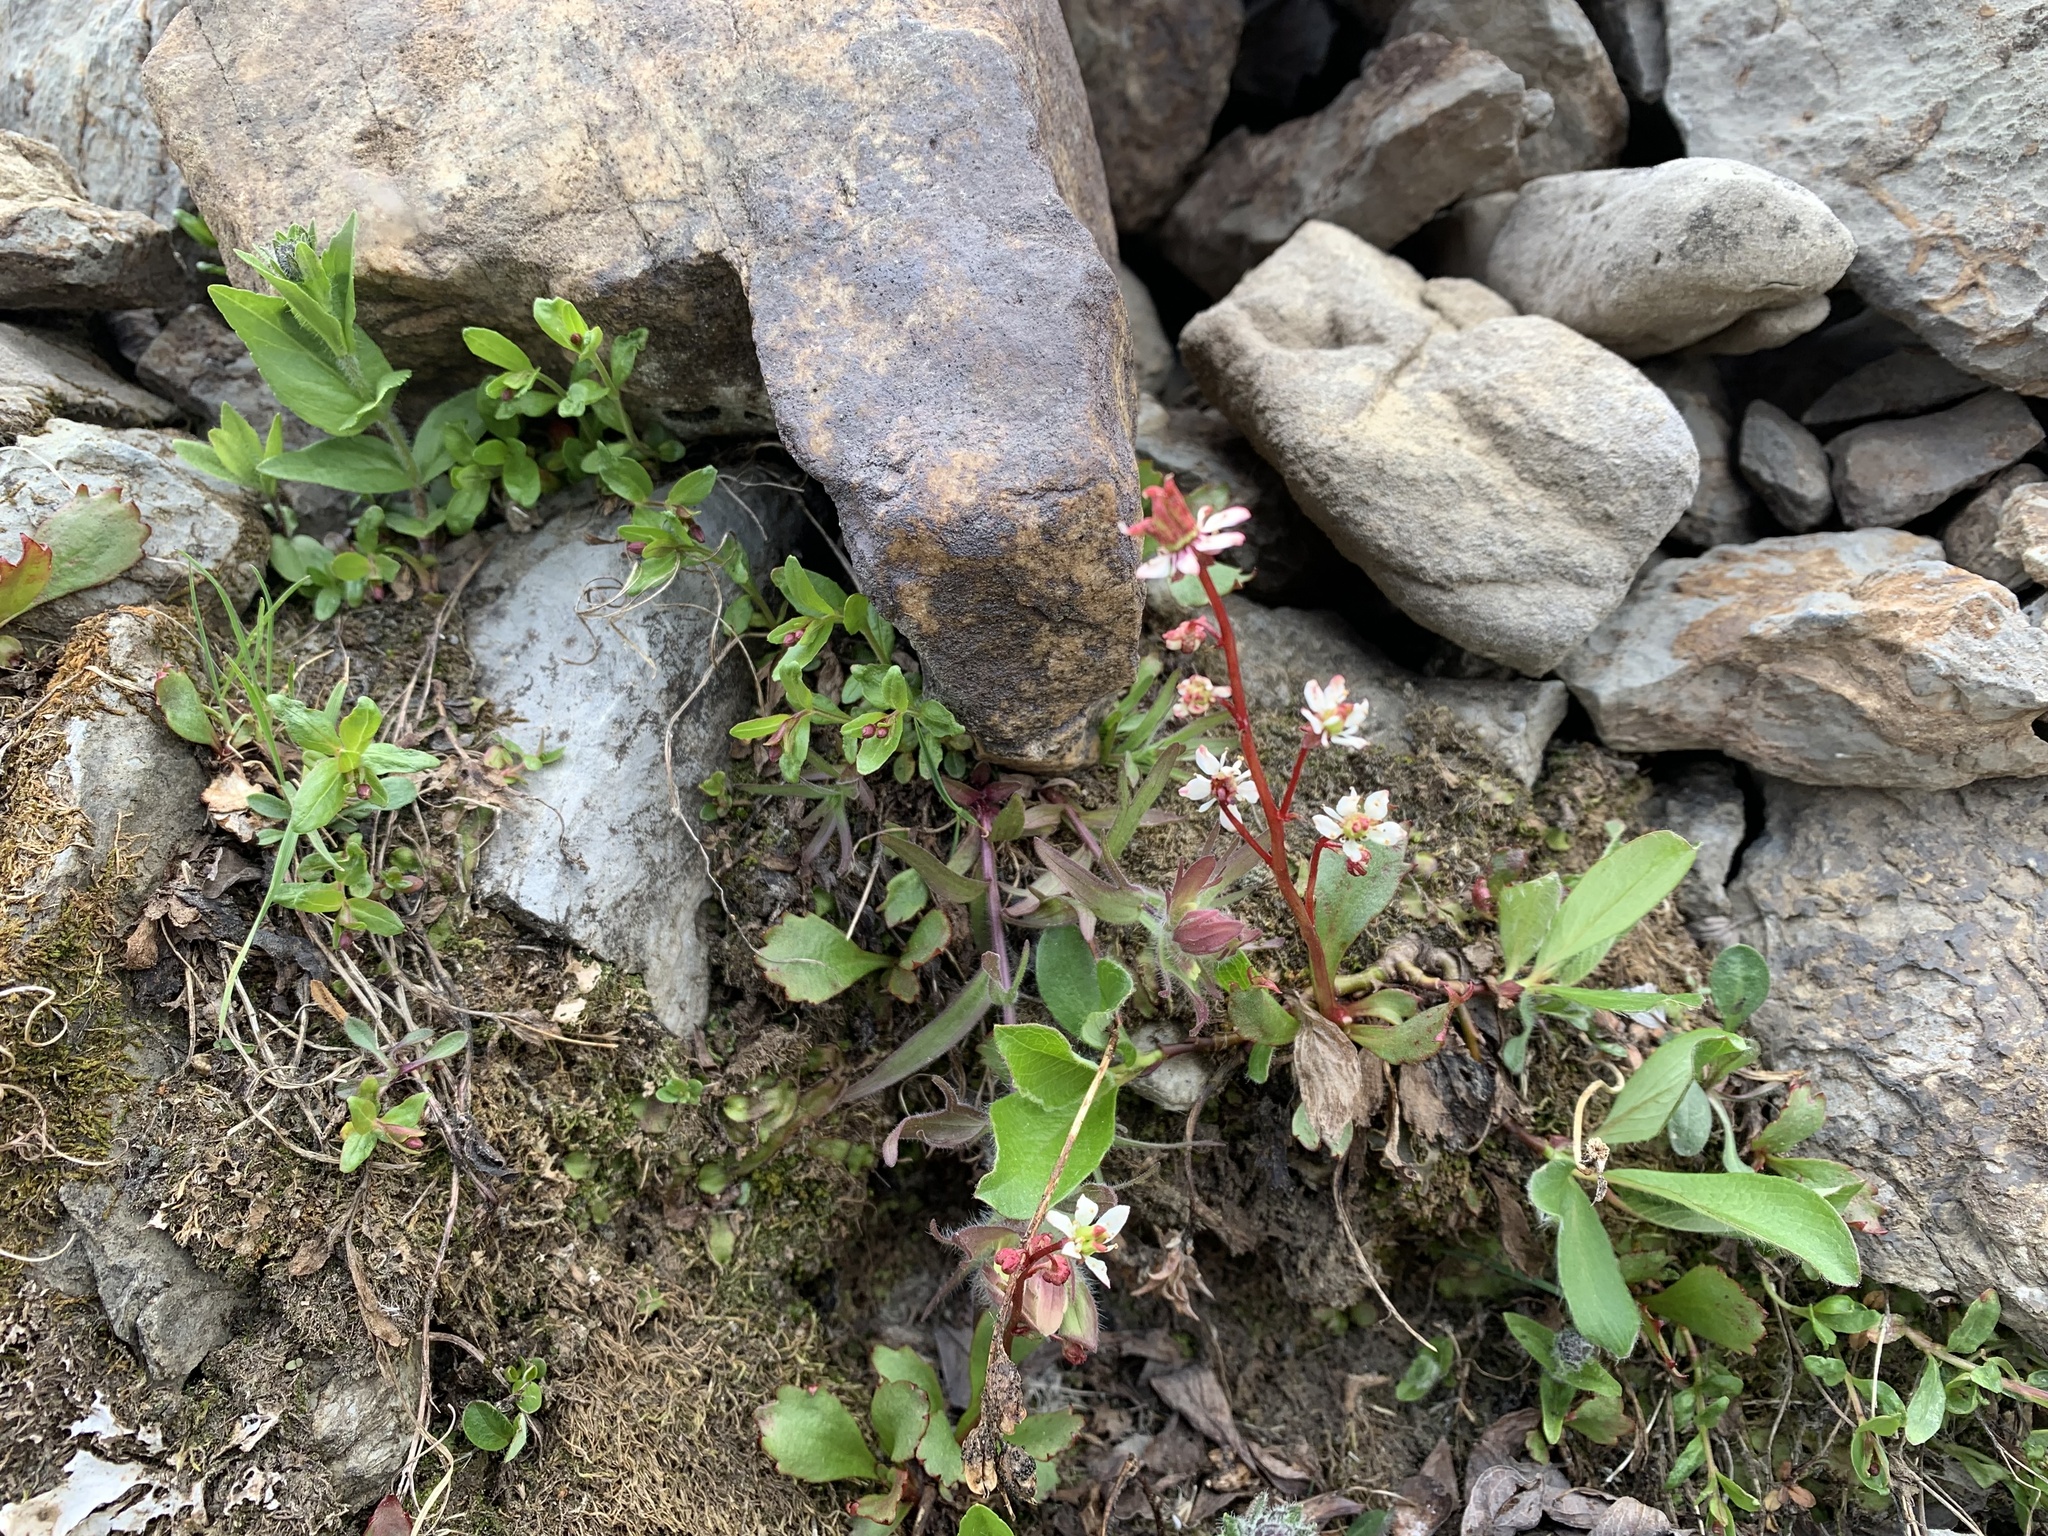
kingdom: Plantae
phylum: Tracheophyta
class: Magnoliopsida
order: Saxifragales
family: Saxifragaceae
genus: Micranthes
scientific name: Micranthes lyallii
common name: Lyall's saxifrage
